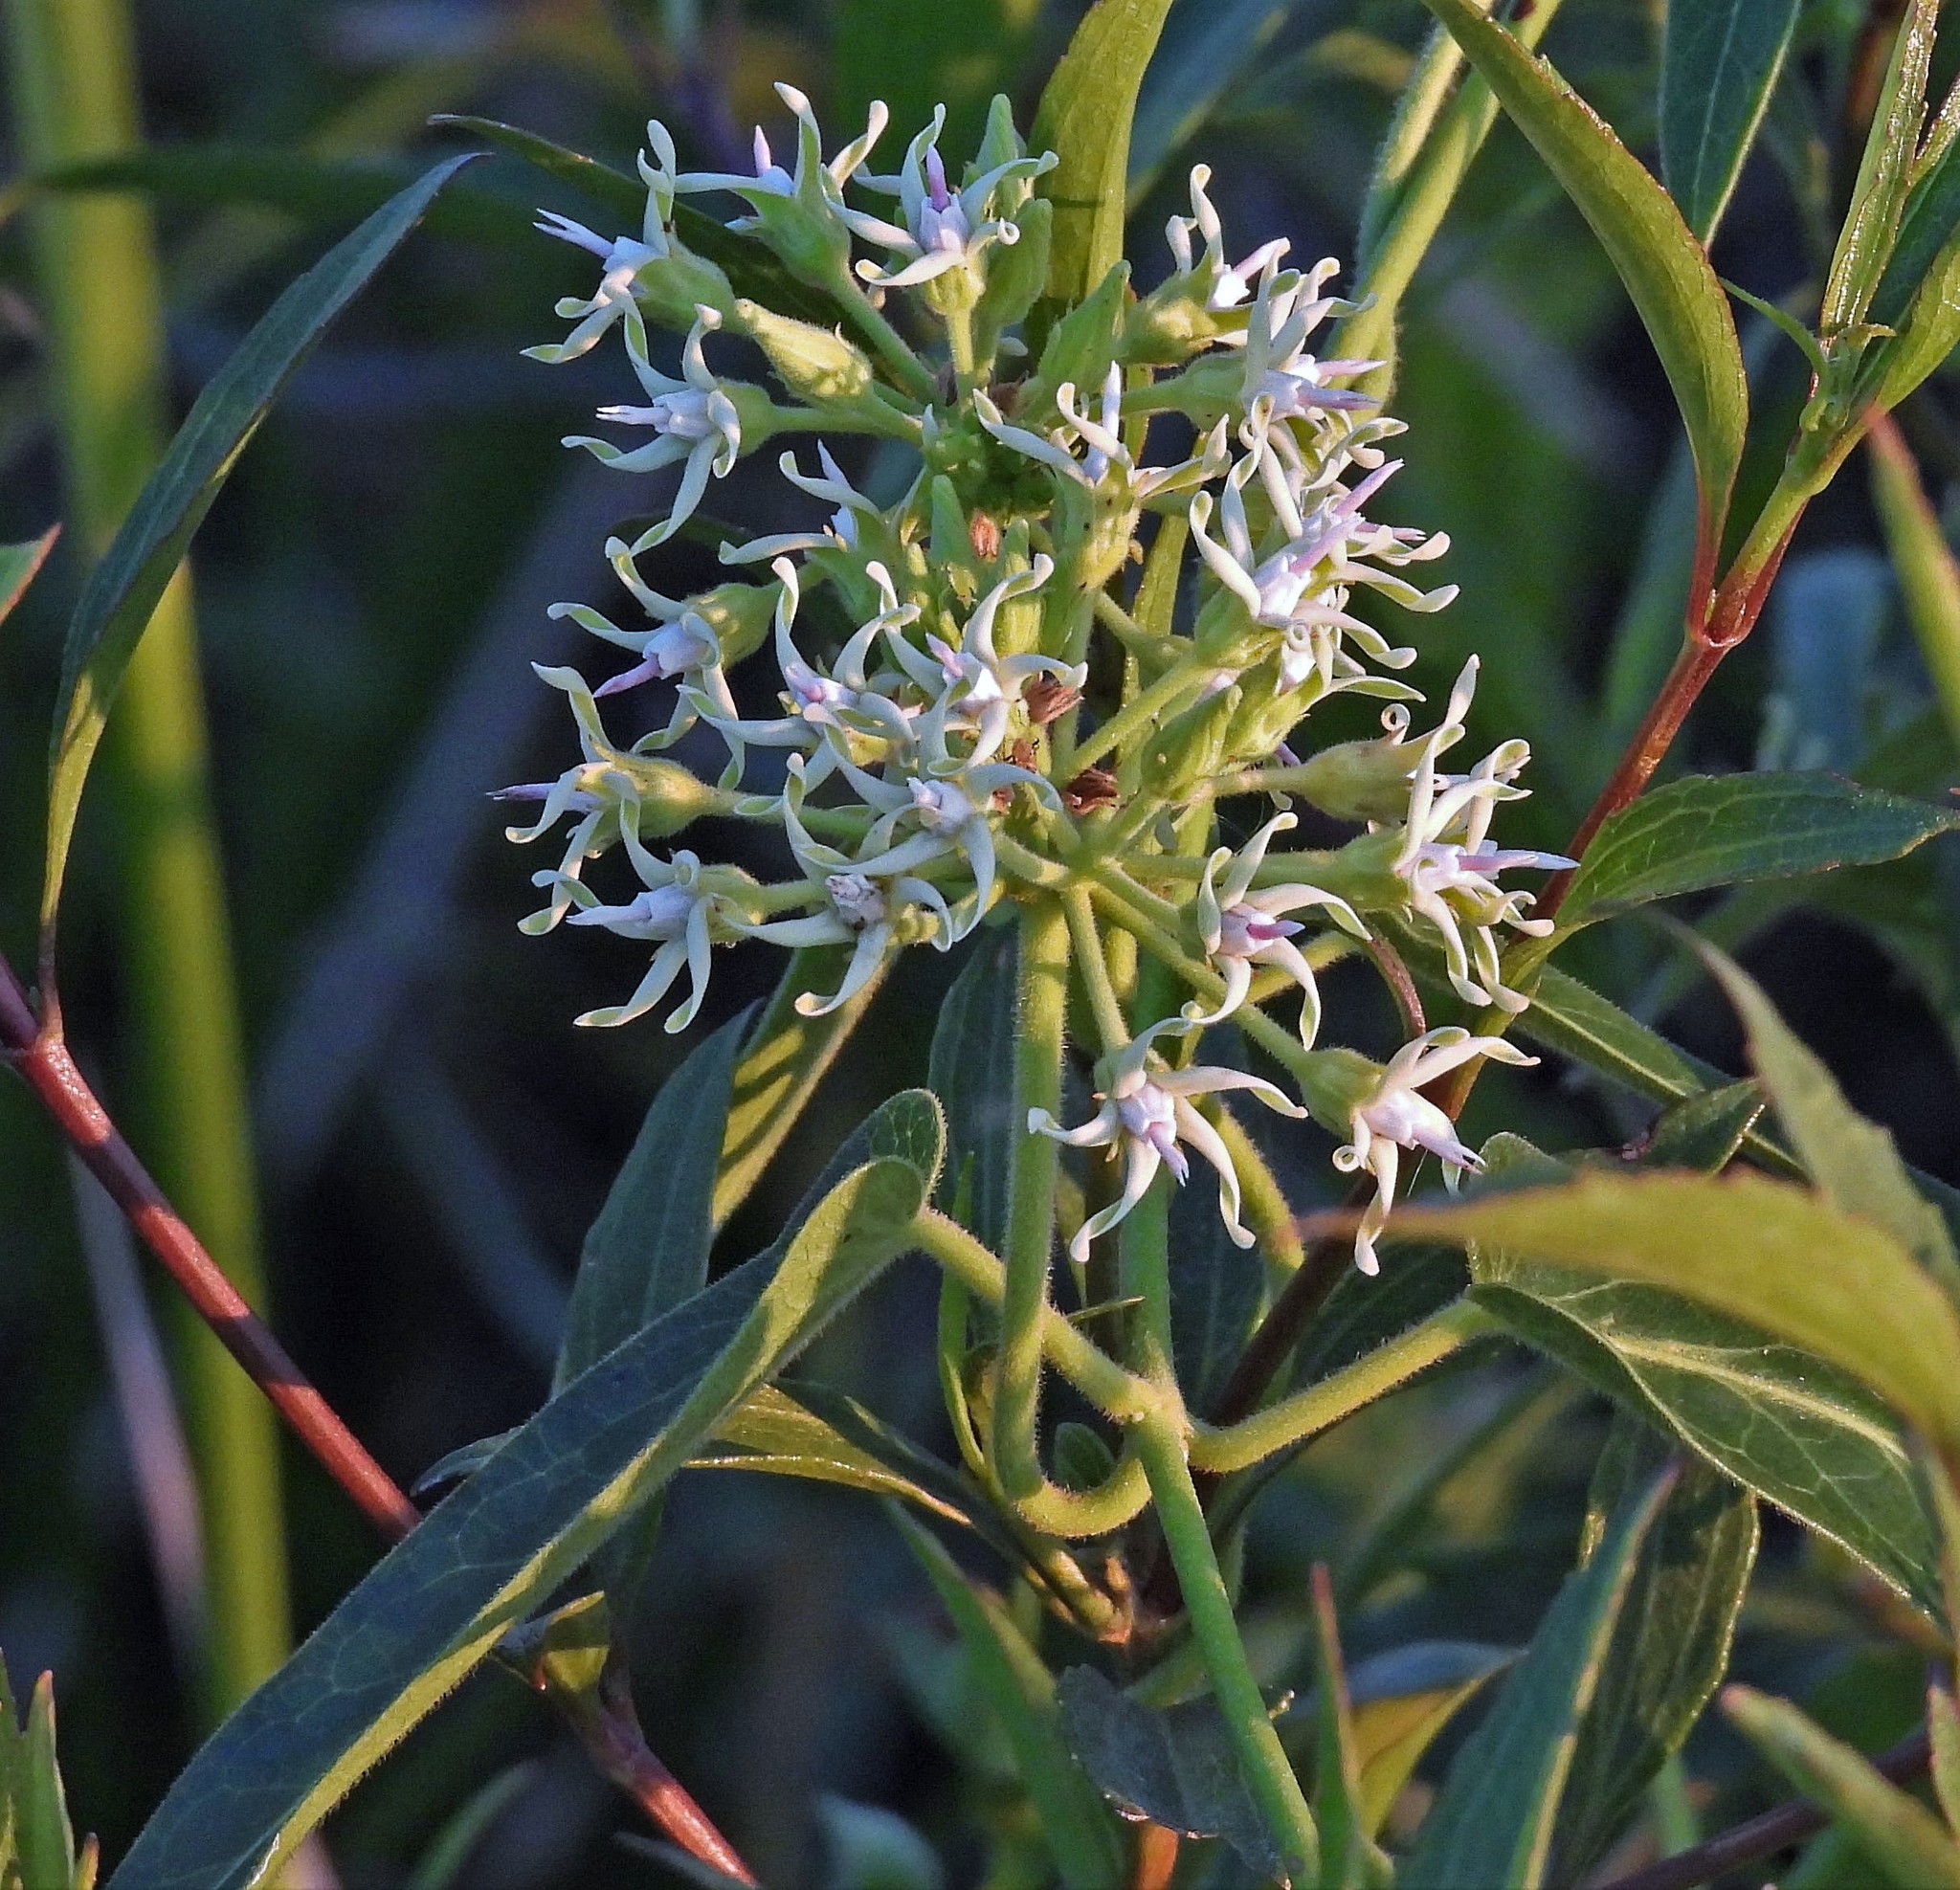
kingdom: Plantae
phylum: Tracheophyta
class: Magnoliopsida
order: Gentianales
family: Apocynaceae
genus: Oxypetalum
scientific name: Oxypetalum macrolepis
